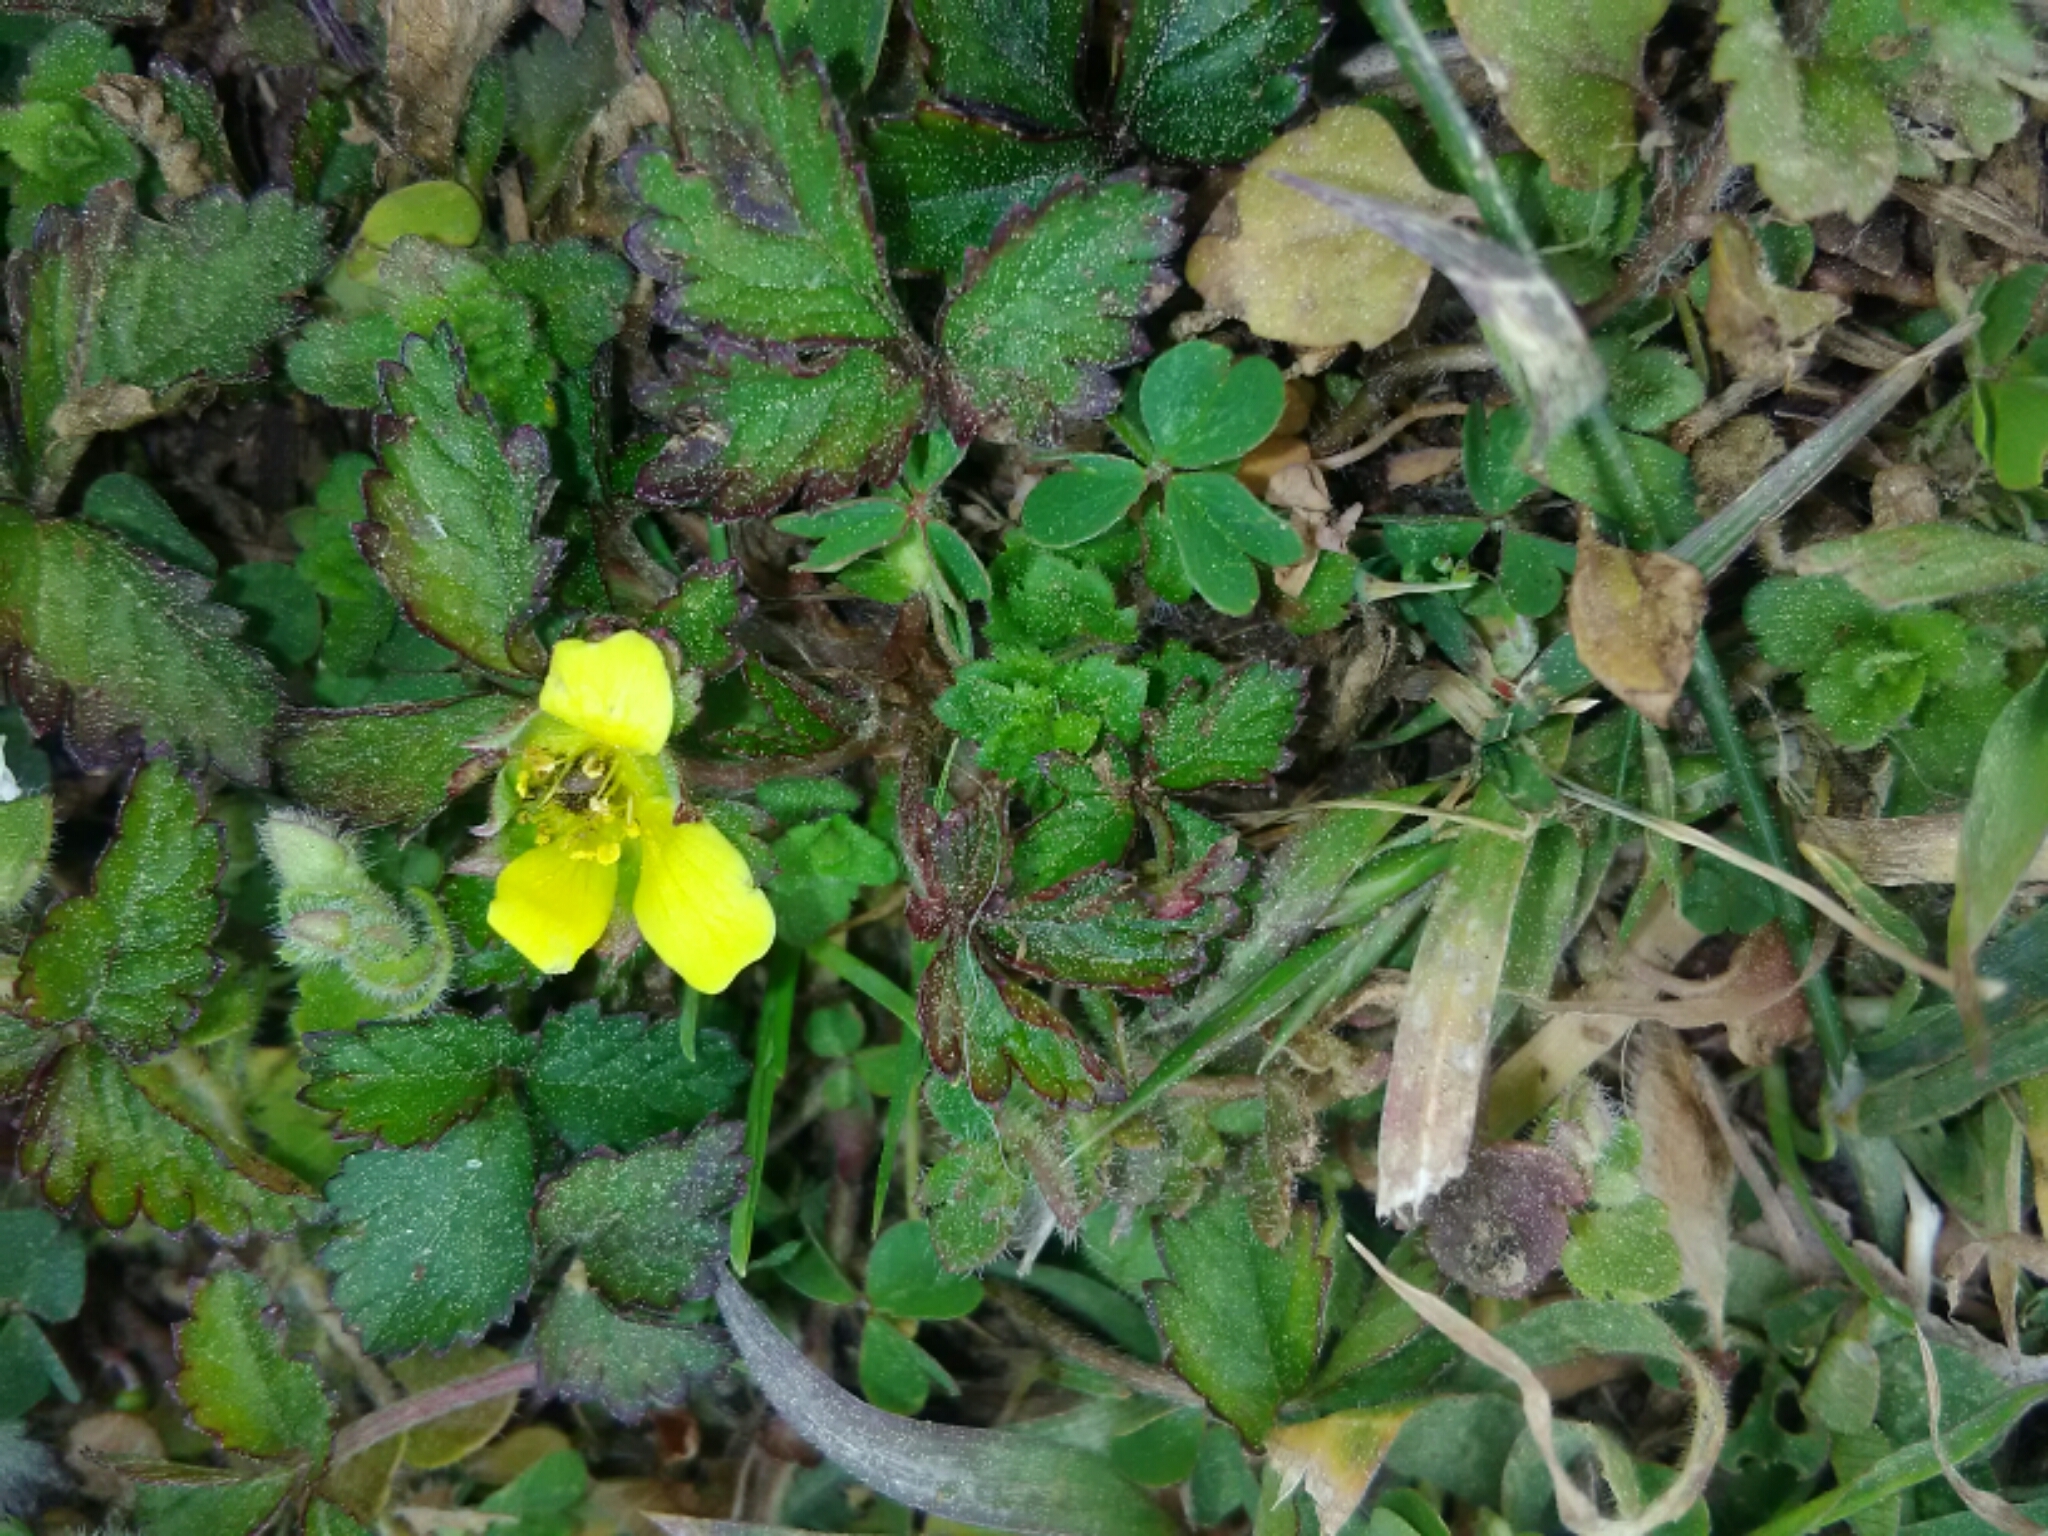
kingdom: Plantae
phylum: Tracheophyta
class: Magnoliopsida
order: Rosales
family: Rosaceae
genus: Potentilla
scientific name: Potentilla indica
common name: Yellow-flowered strawberry
